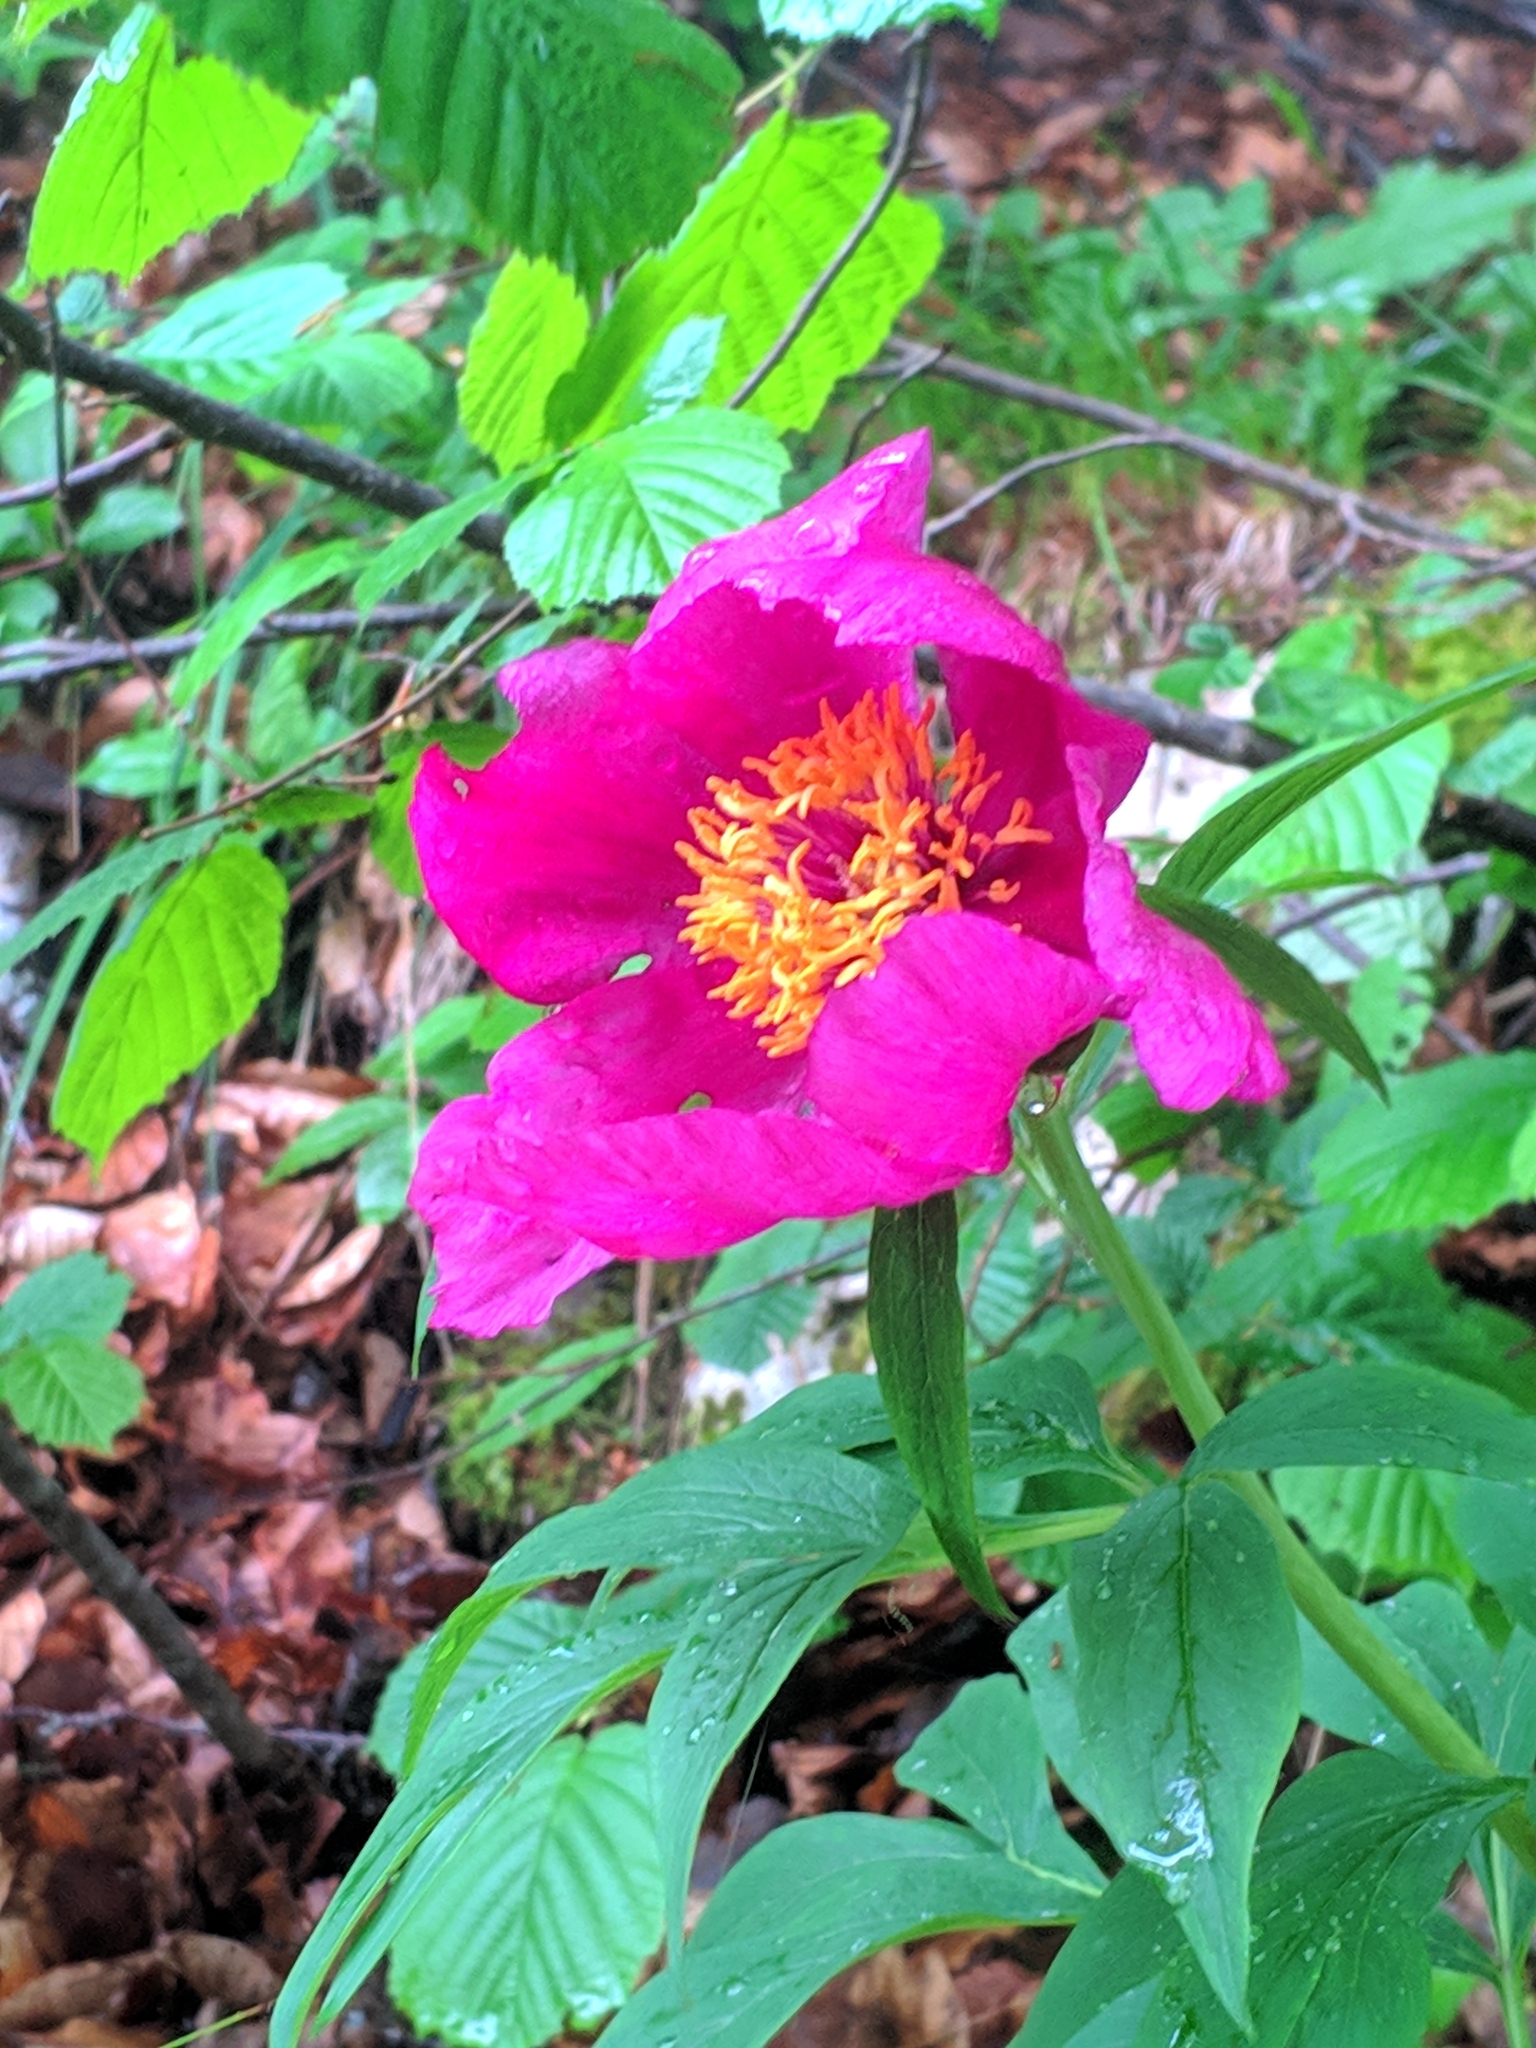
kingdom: Plantae
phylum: Tracheophyta
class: Magnoliopsida
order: Saxifragales
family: Paeoniaceae
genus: Paeonia
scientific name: Paeonia officinalis
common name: Common peony
